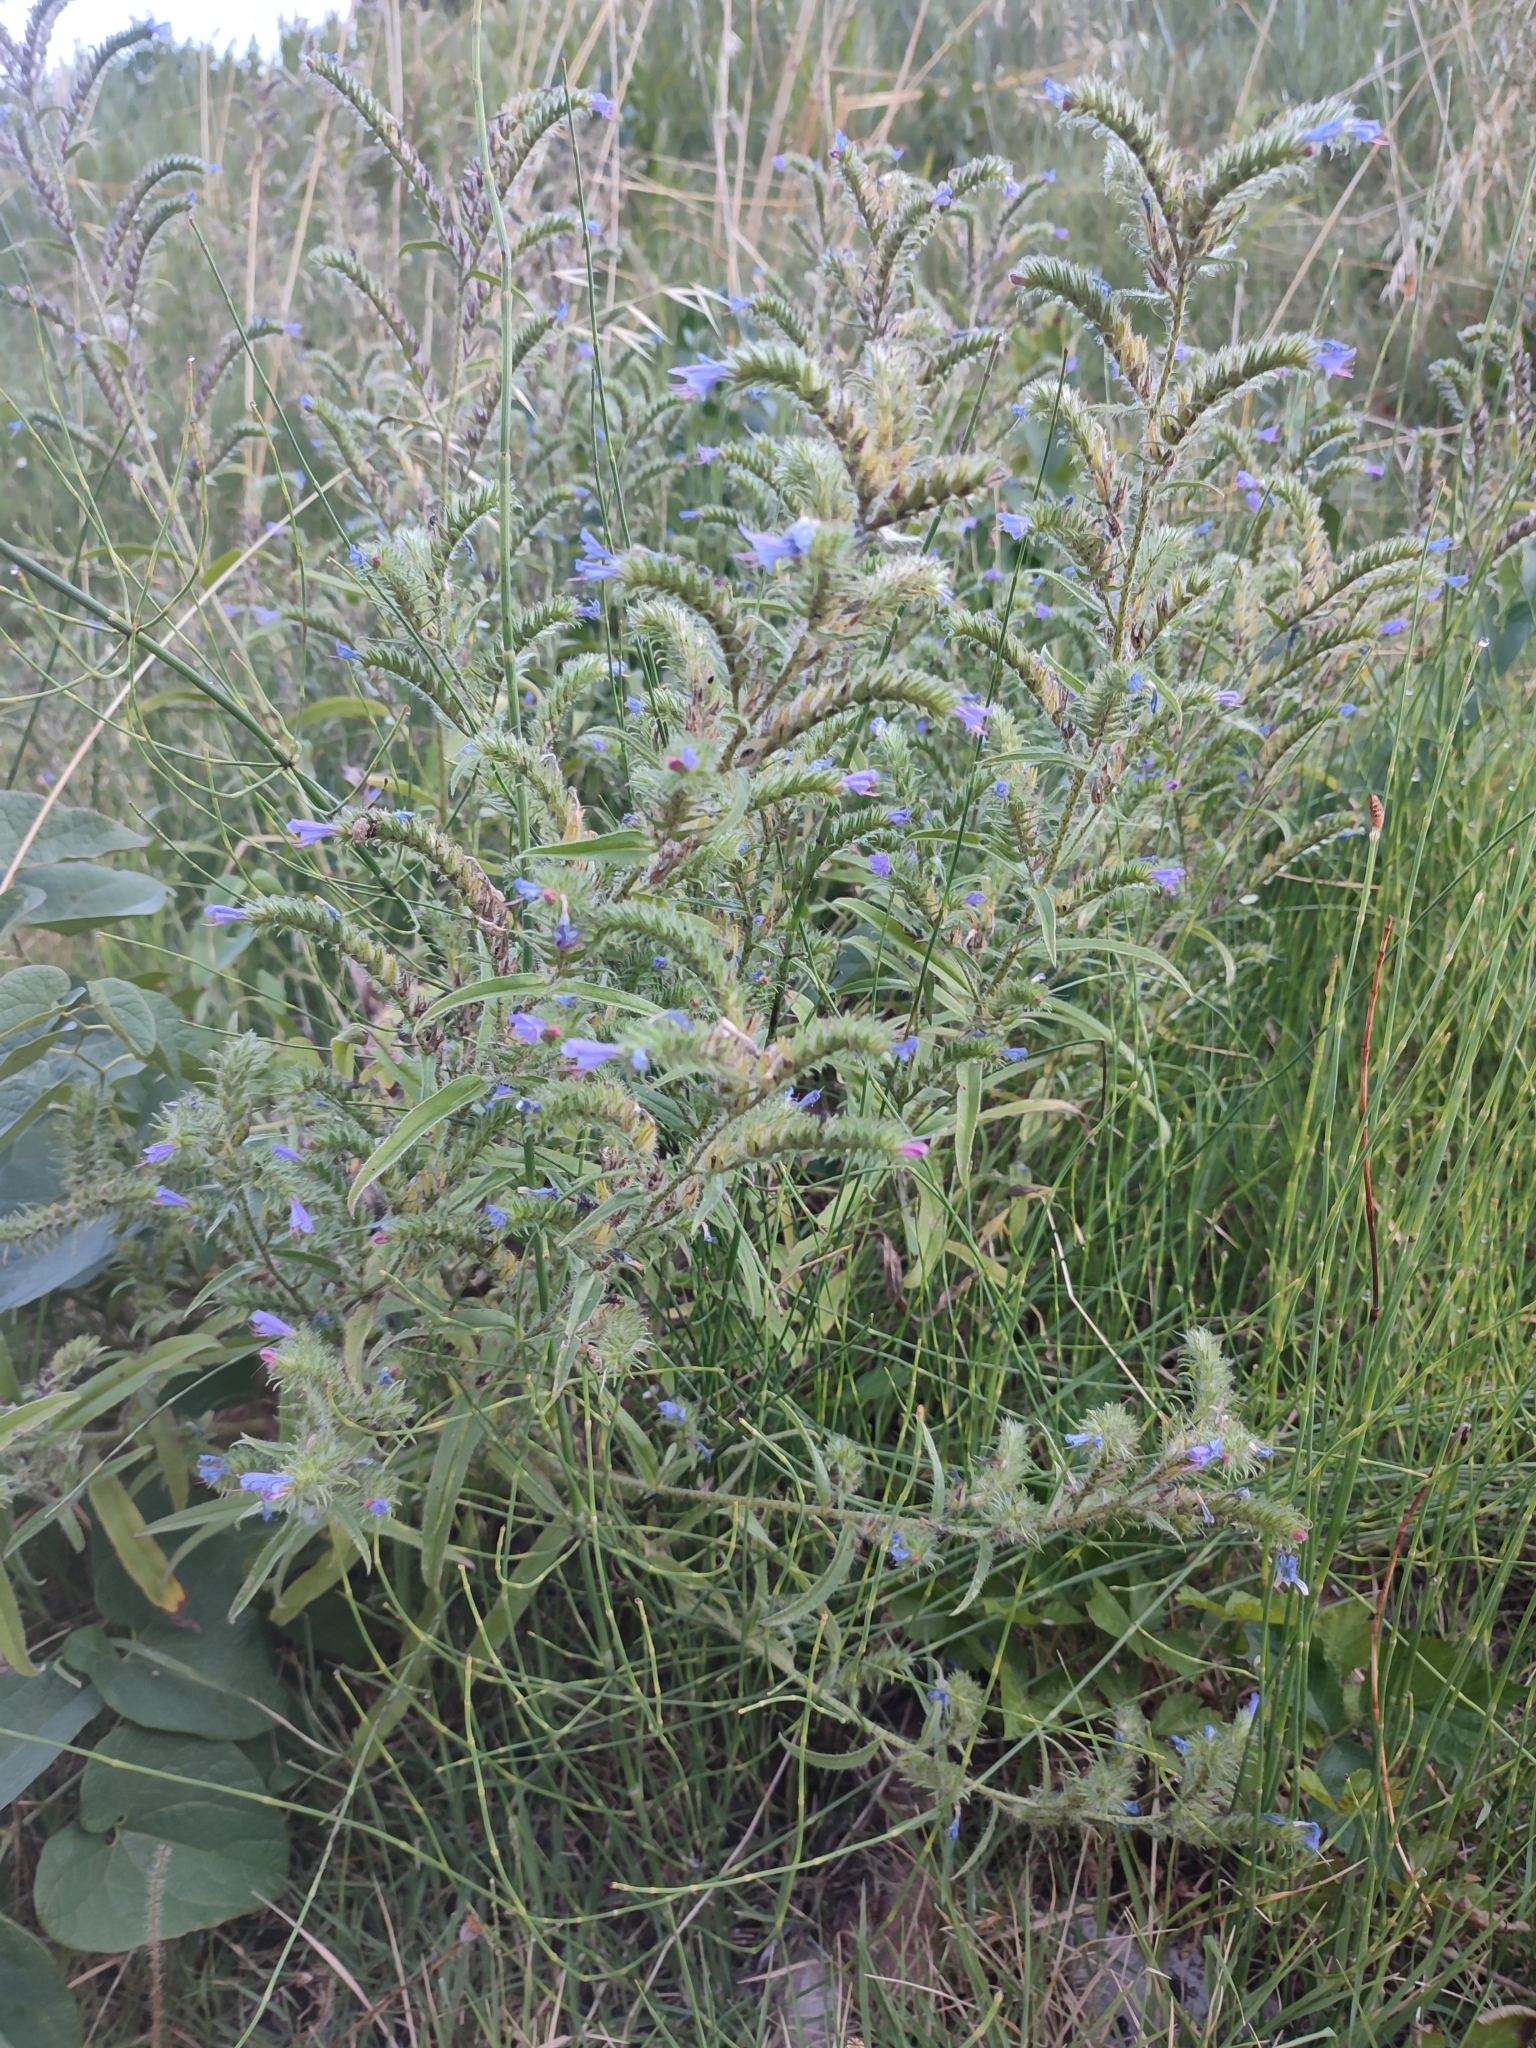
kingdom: Plantae
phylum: Tracheophyta
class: Magnoliopsida
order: Boraginales
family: Boraginaceae
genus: Echium
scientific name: Echium vulgare
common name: Common viper's bugloss
